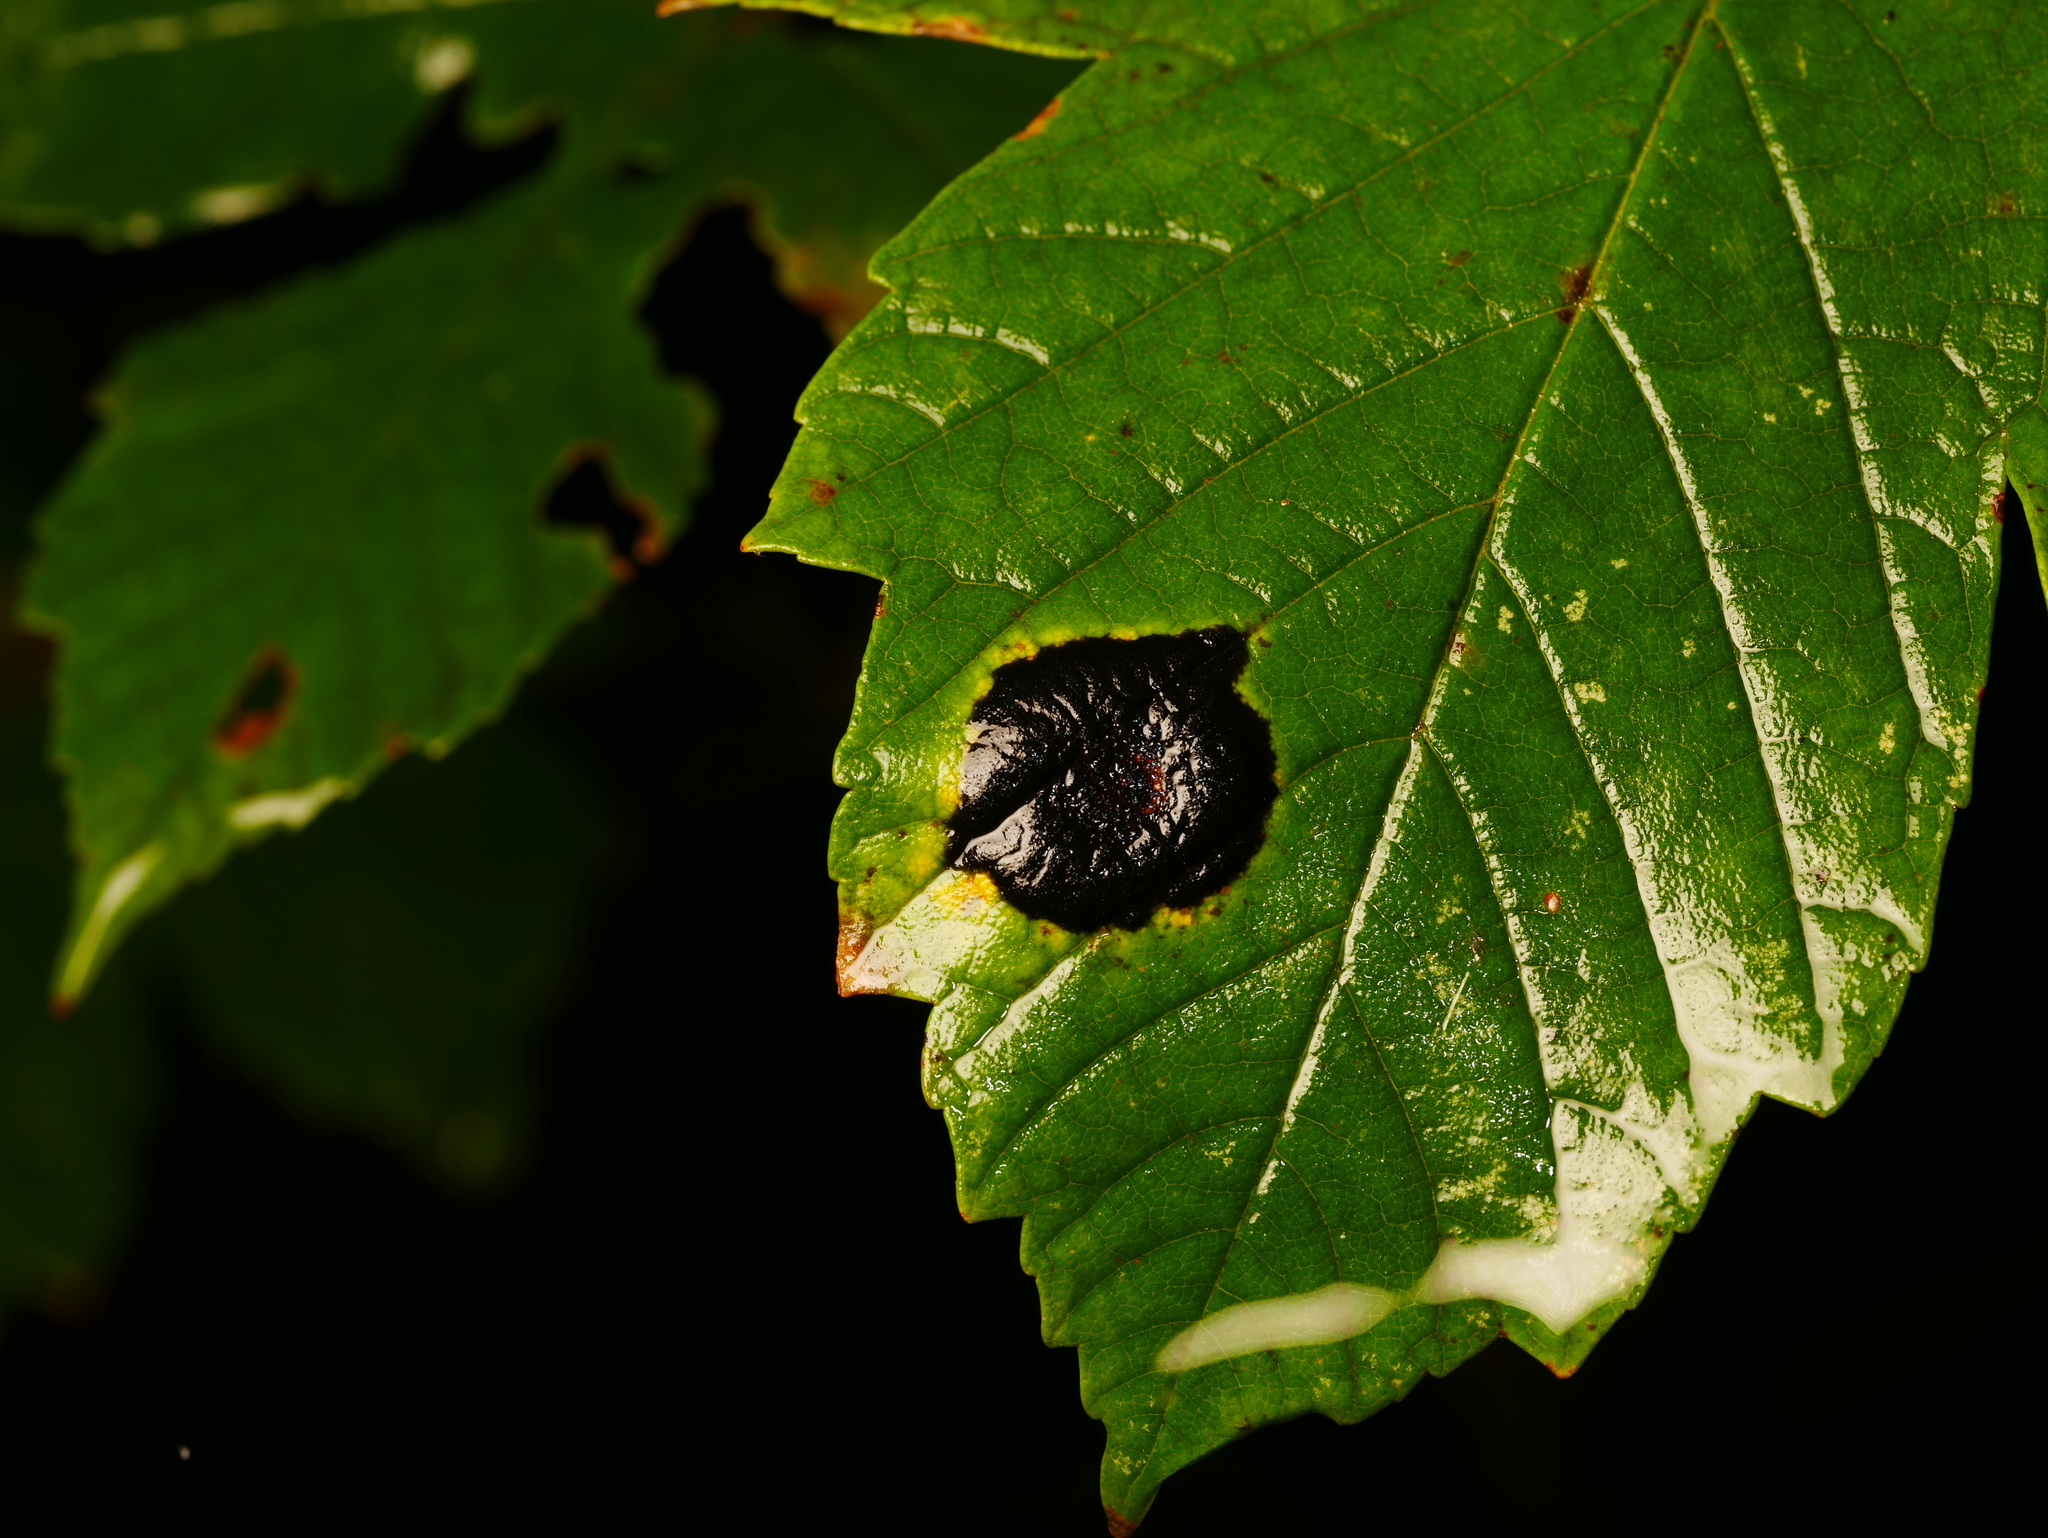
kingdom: Fungi
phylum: Ascomycota
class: Leotiomycetes
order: Rhytismatales
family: Rhytismataceae
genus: Rhytisma
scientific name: Rhytisma acerinum
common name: European tar spot
